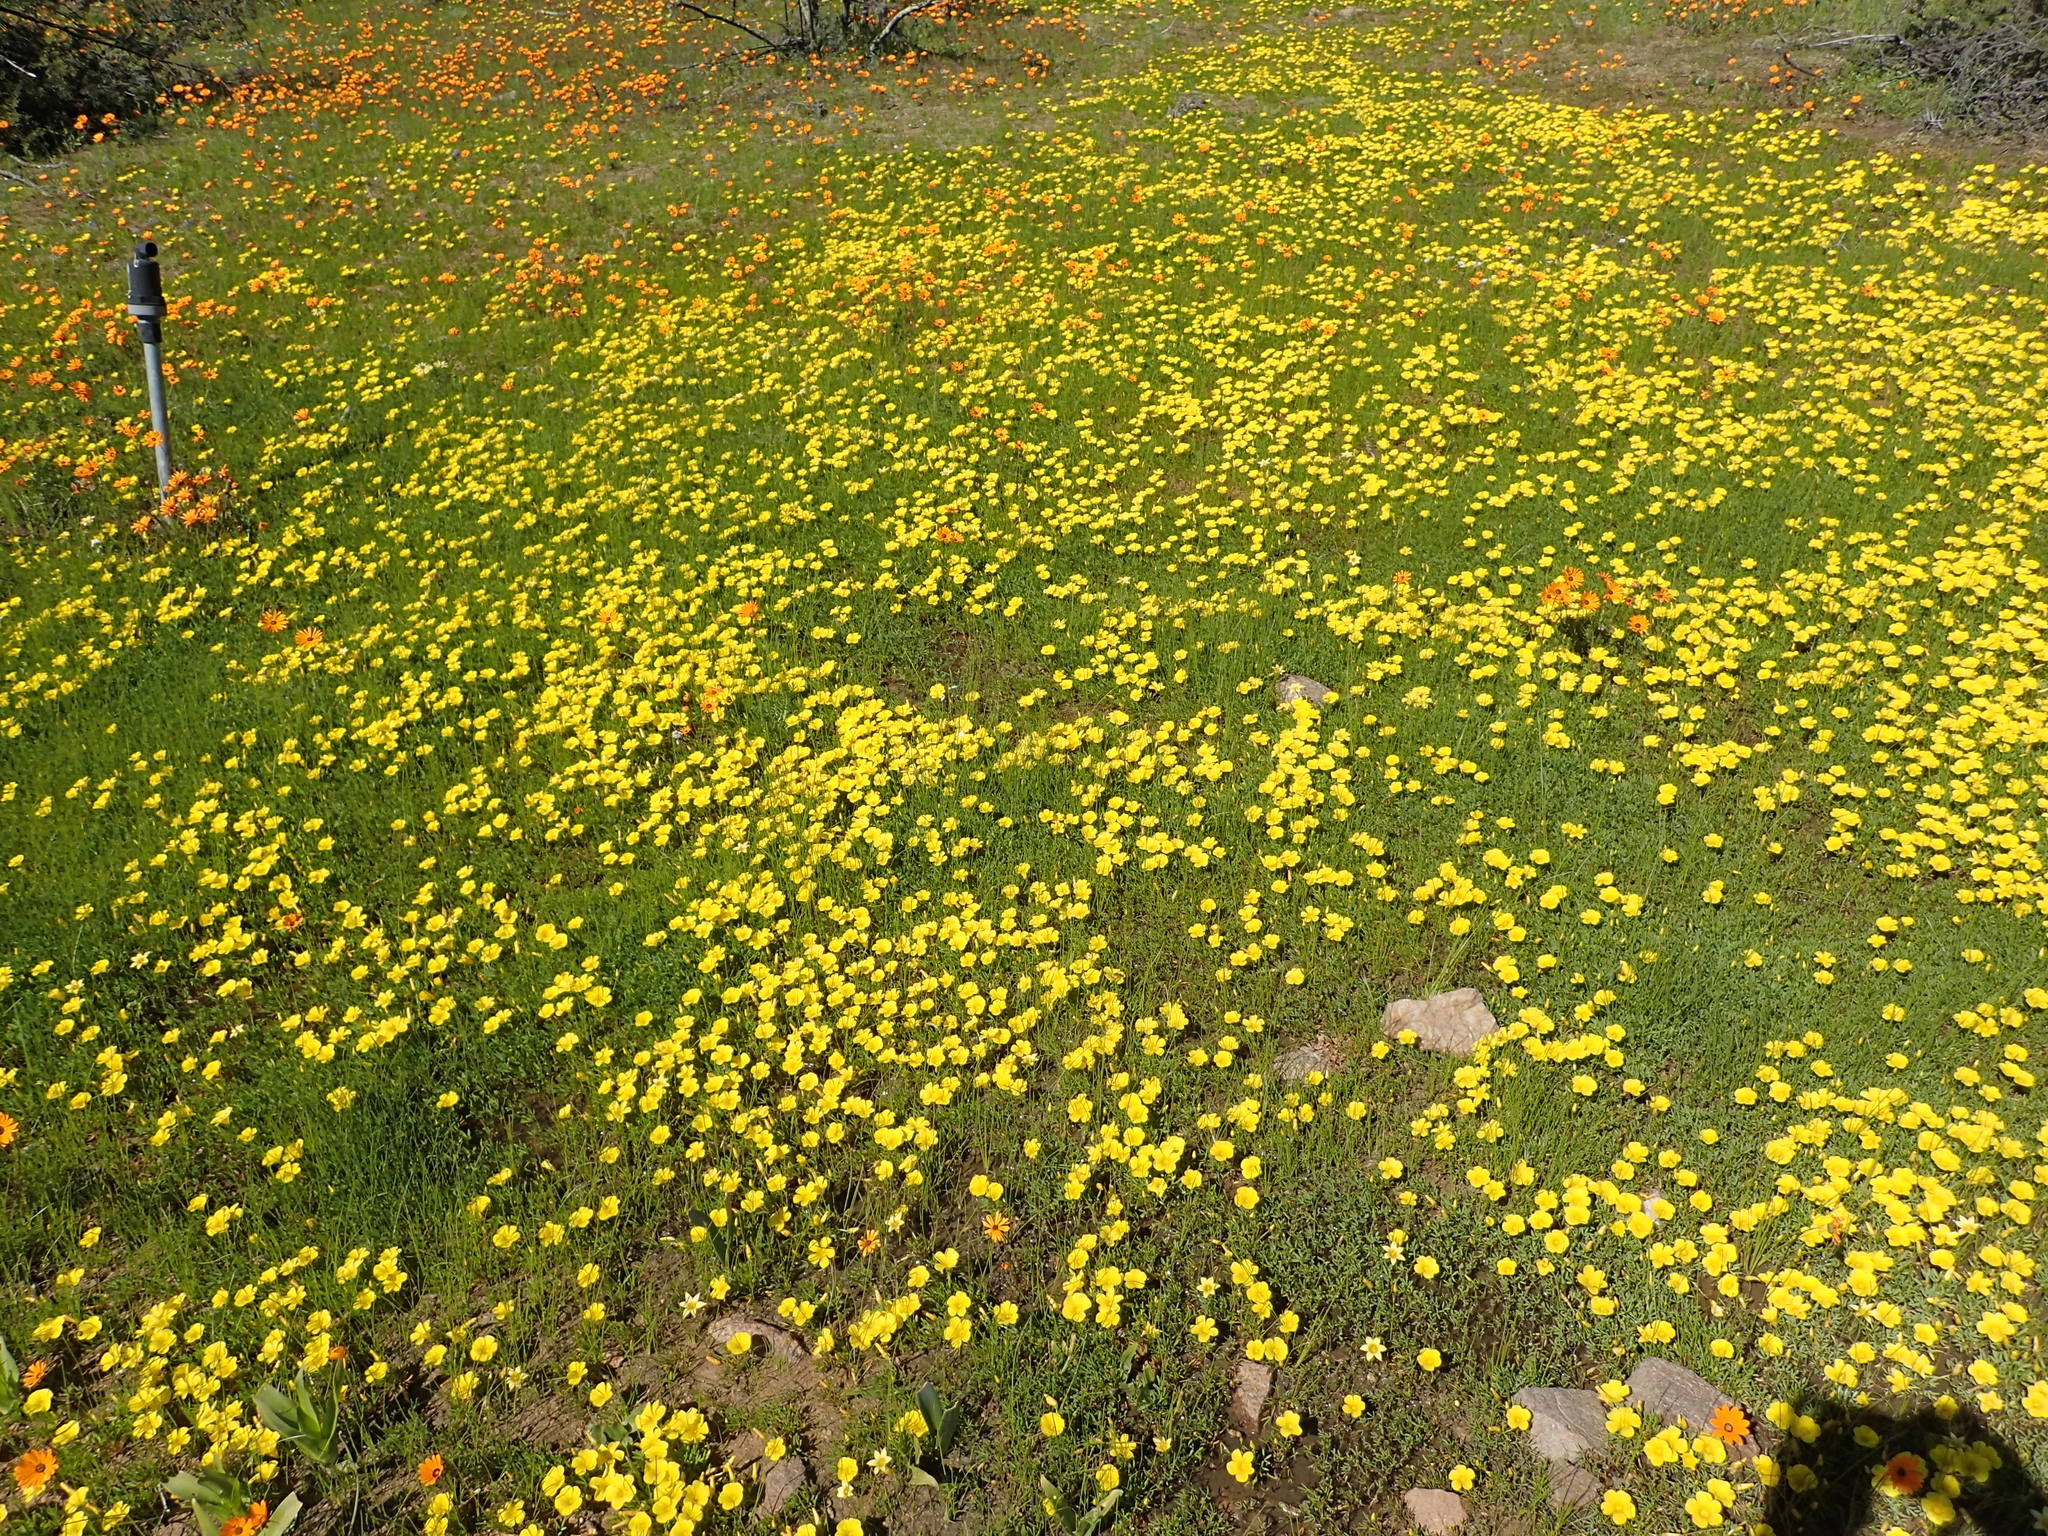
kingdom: Plantae
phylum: Tracheophyta
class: Magnoliopsida
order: Oxalidales
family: Oxalidaceae
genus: Oxalis
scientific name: Oxalis namaquana
